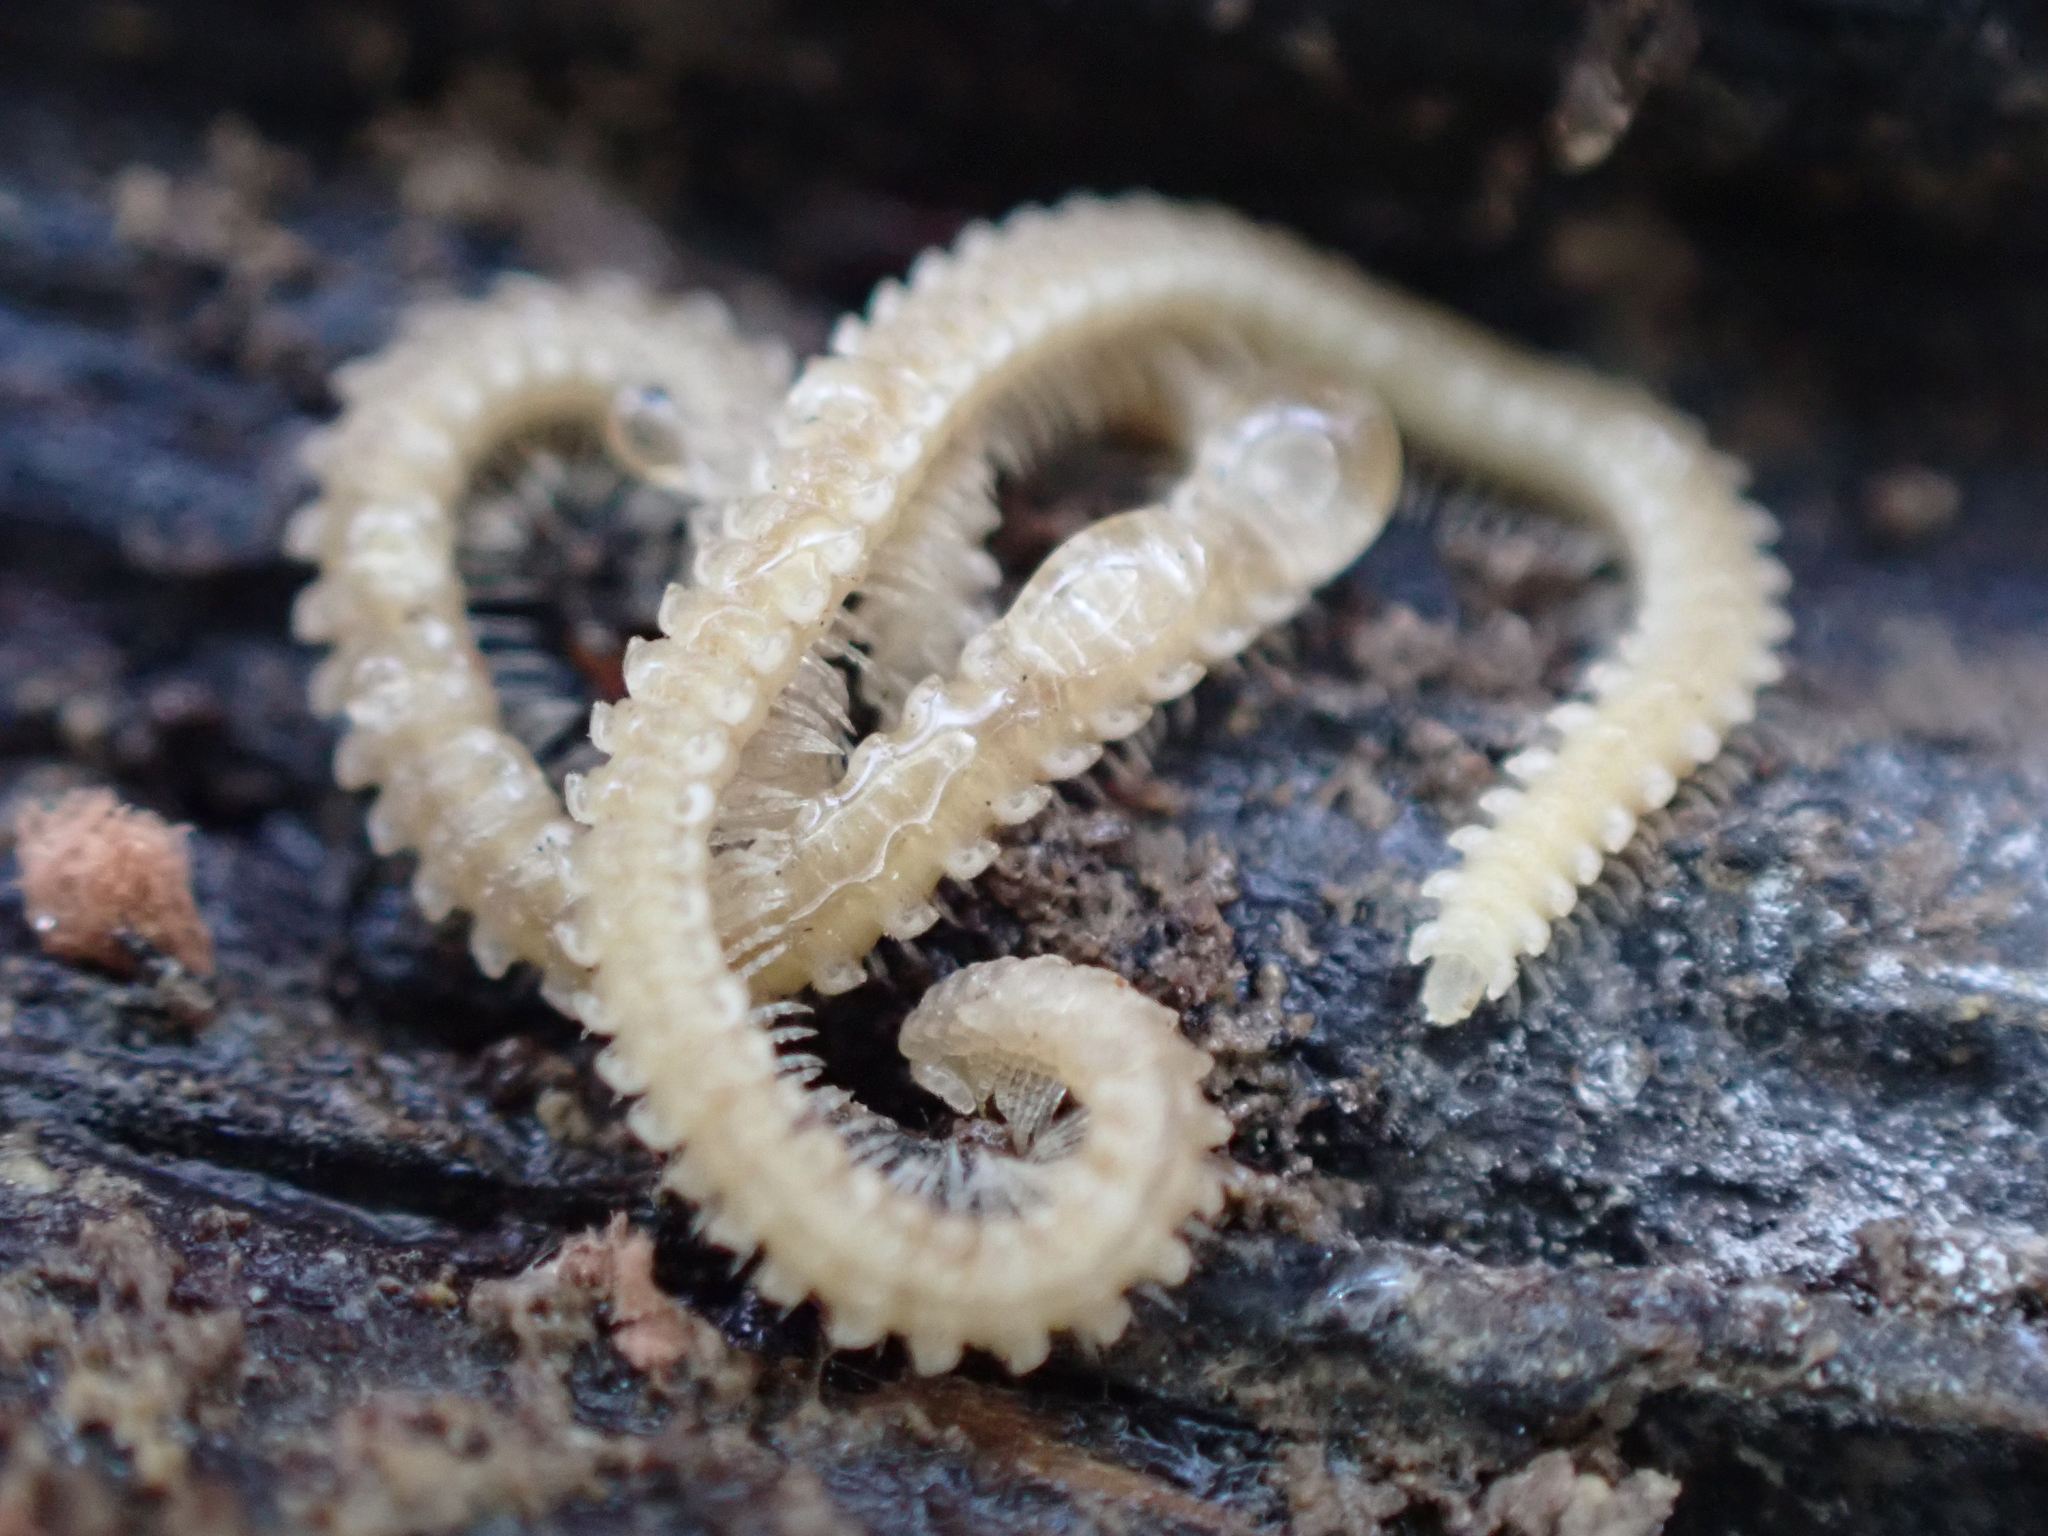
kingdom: Animalia
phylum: Arthropoda
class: Diplopoda
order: Platydesmida
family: Andrognathidae
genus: Andrognathus
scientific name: Andrognathus corticarius
